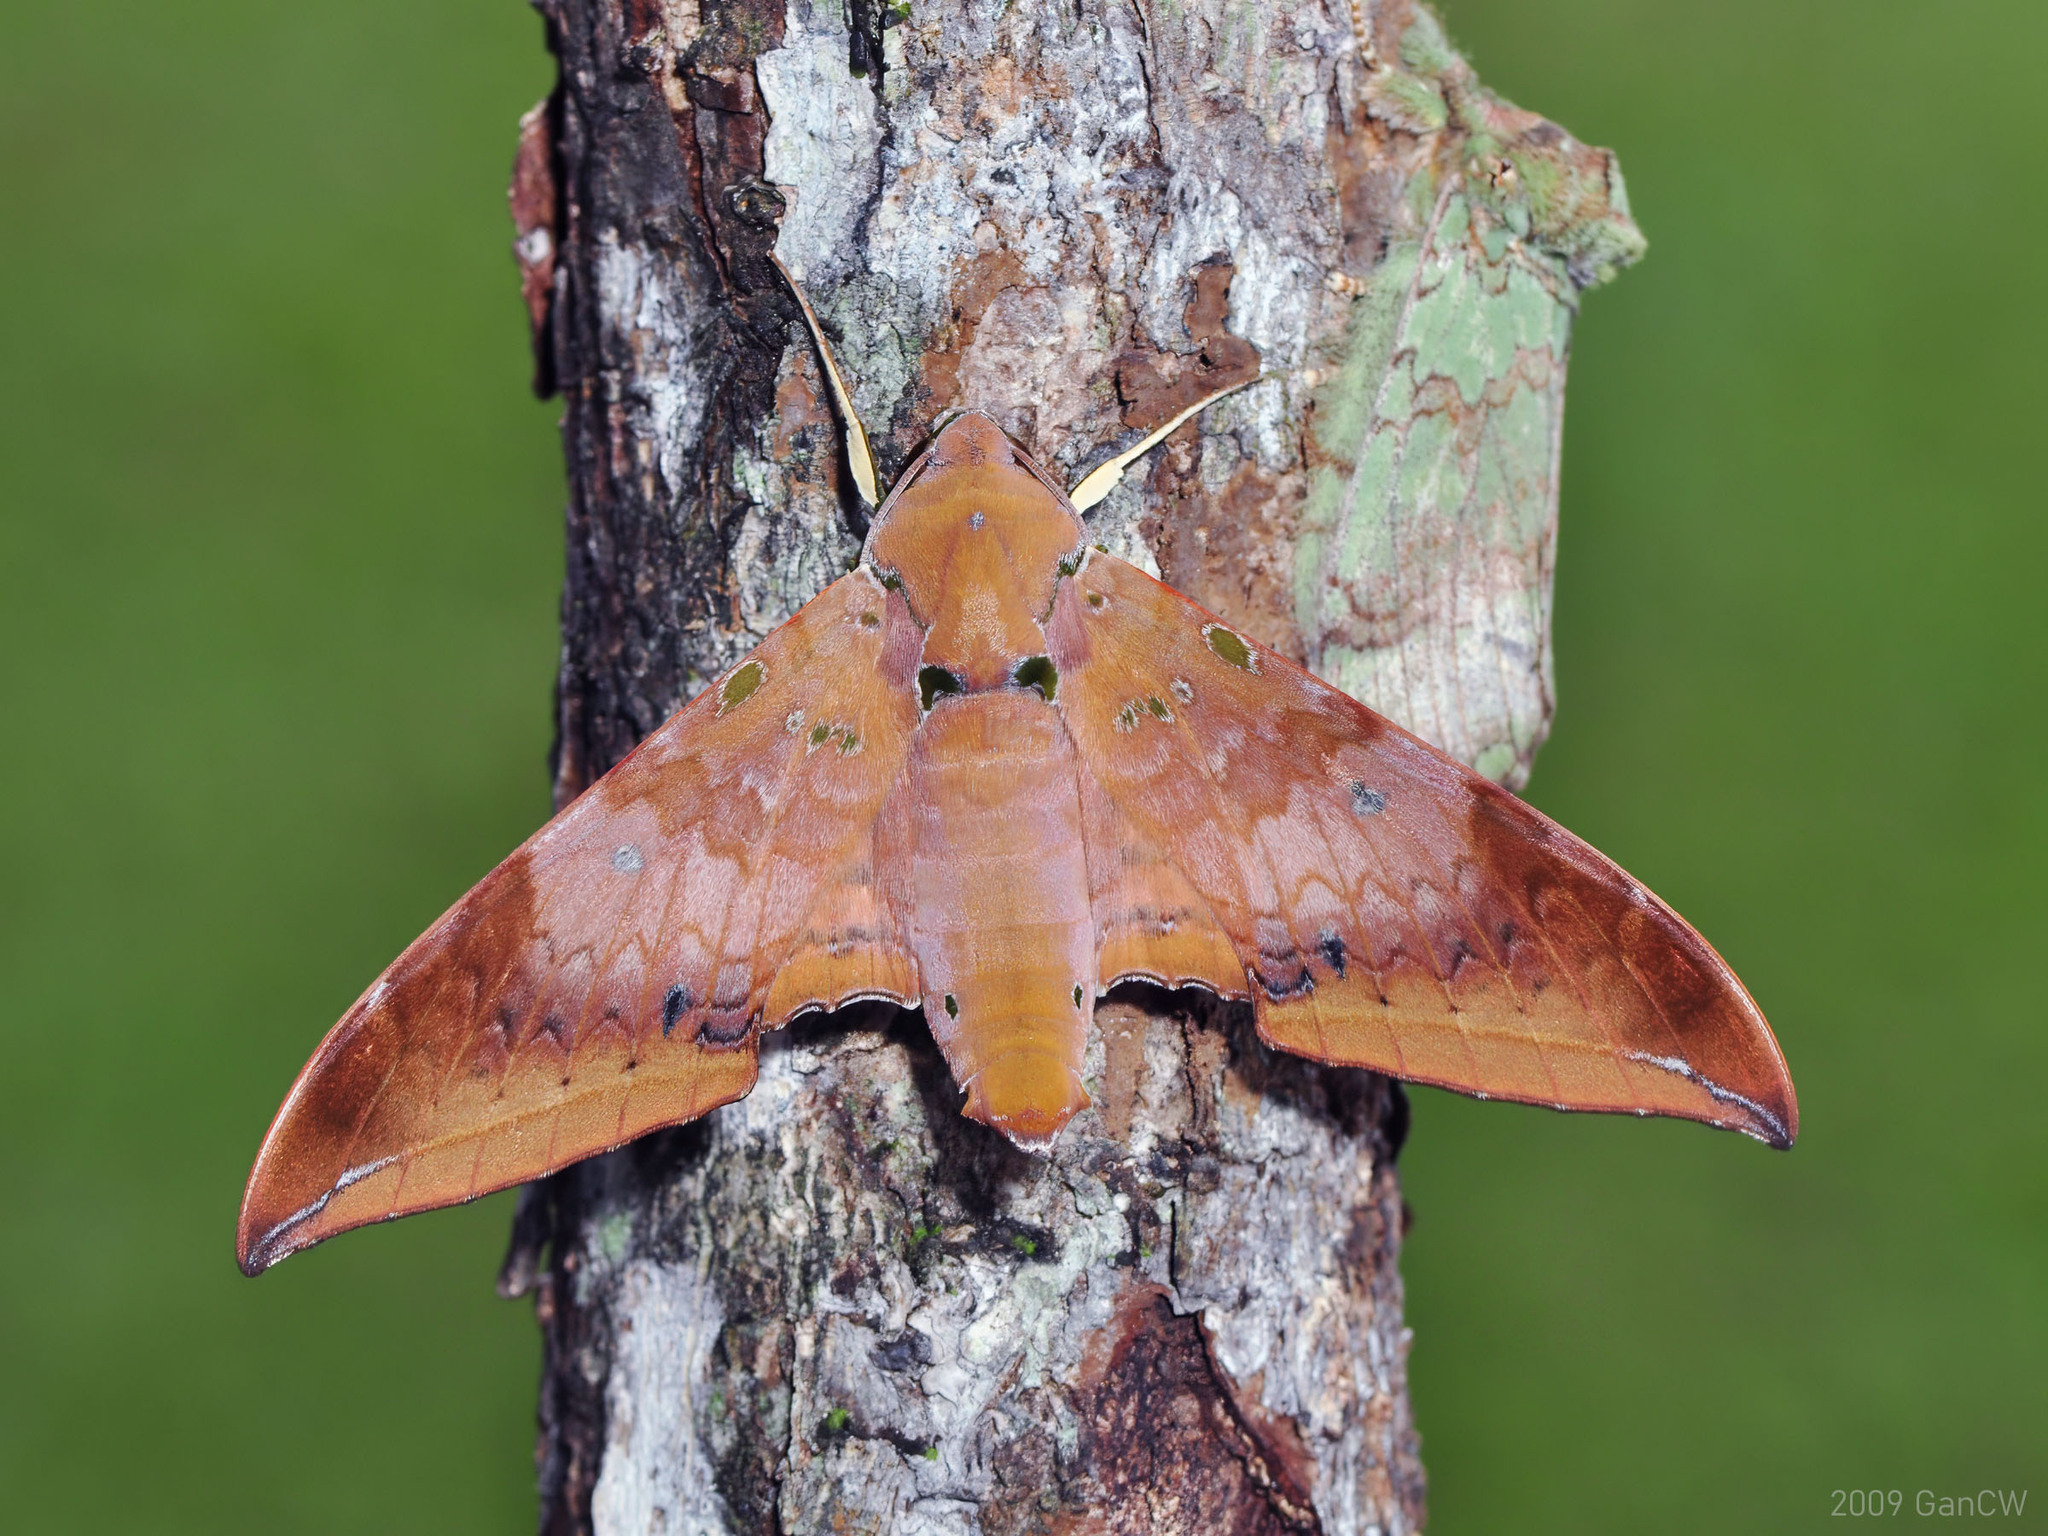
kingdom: Animalia
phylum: Arthropoda
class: Insecta
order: Lepidoptera
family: Sphingidae
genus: Ambulyx
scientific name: Ambulyx moorei
